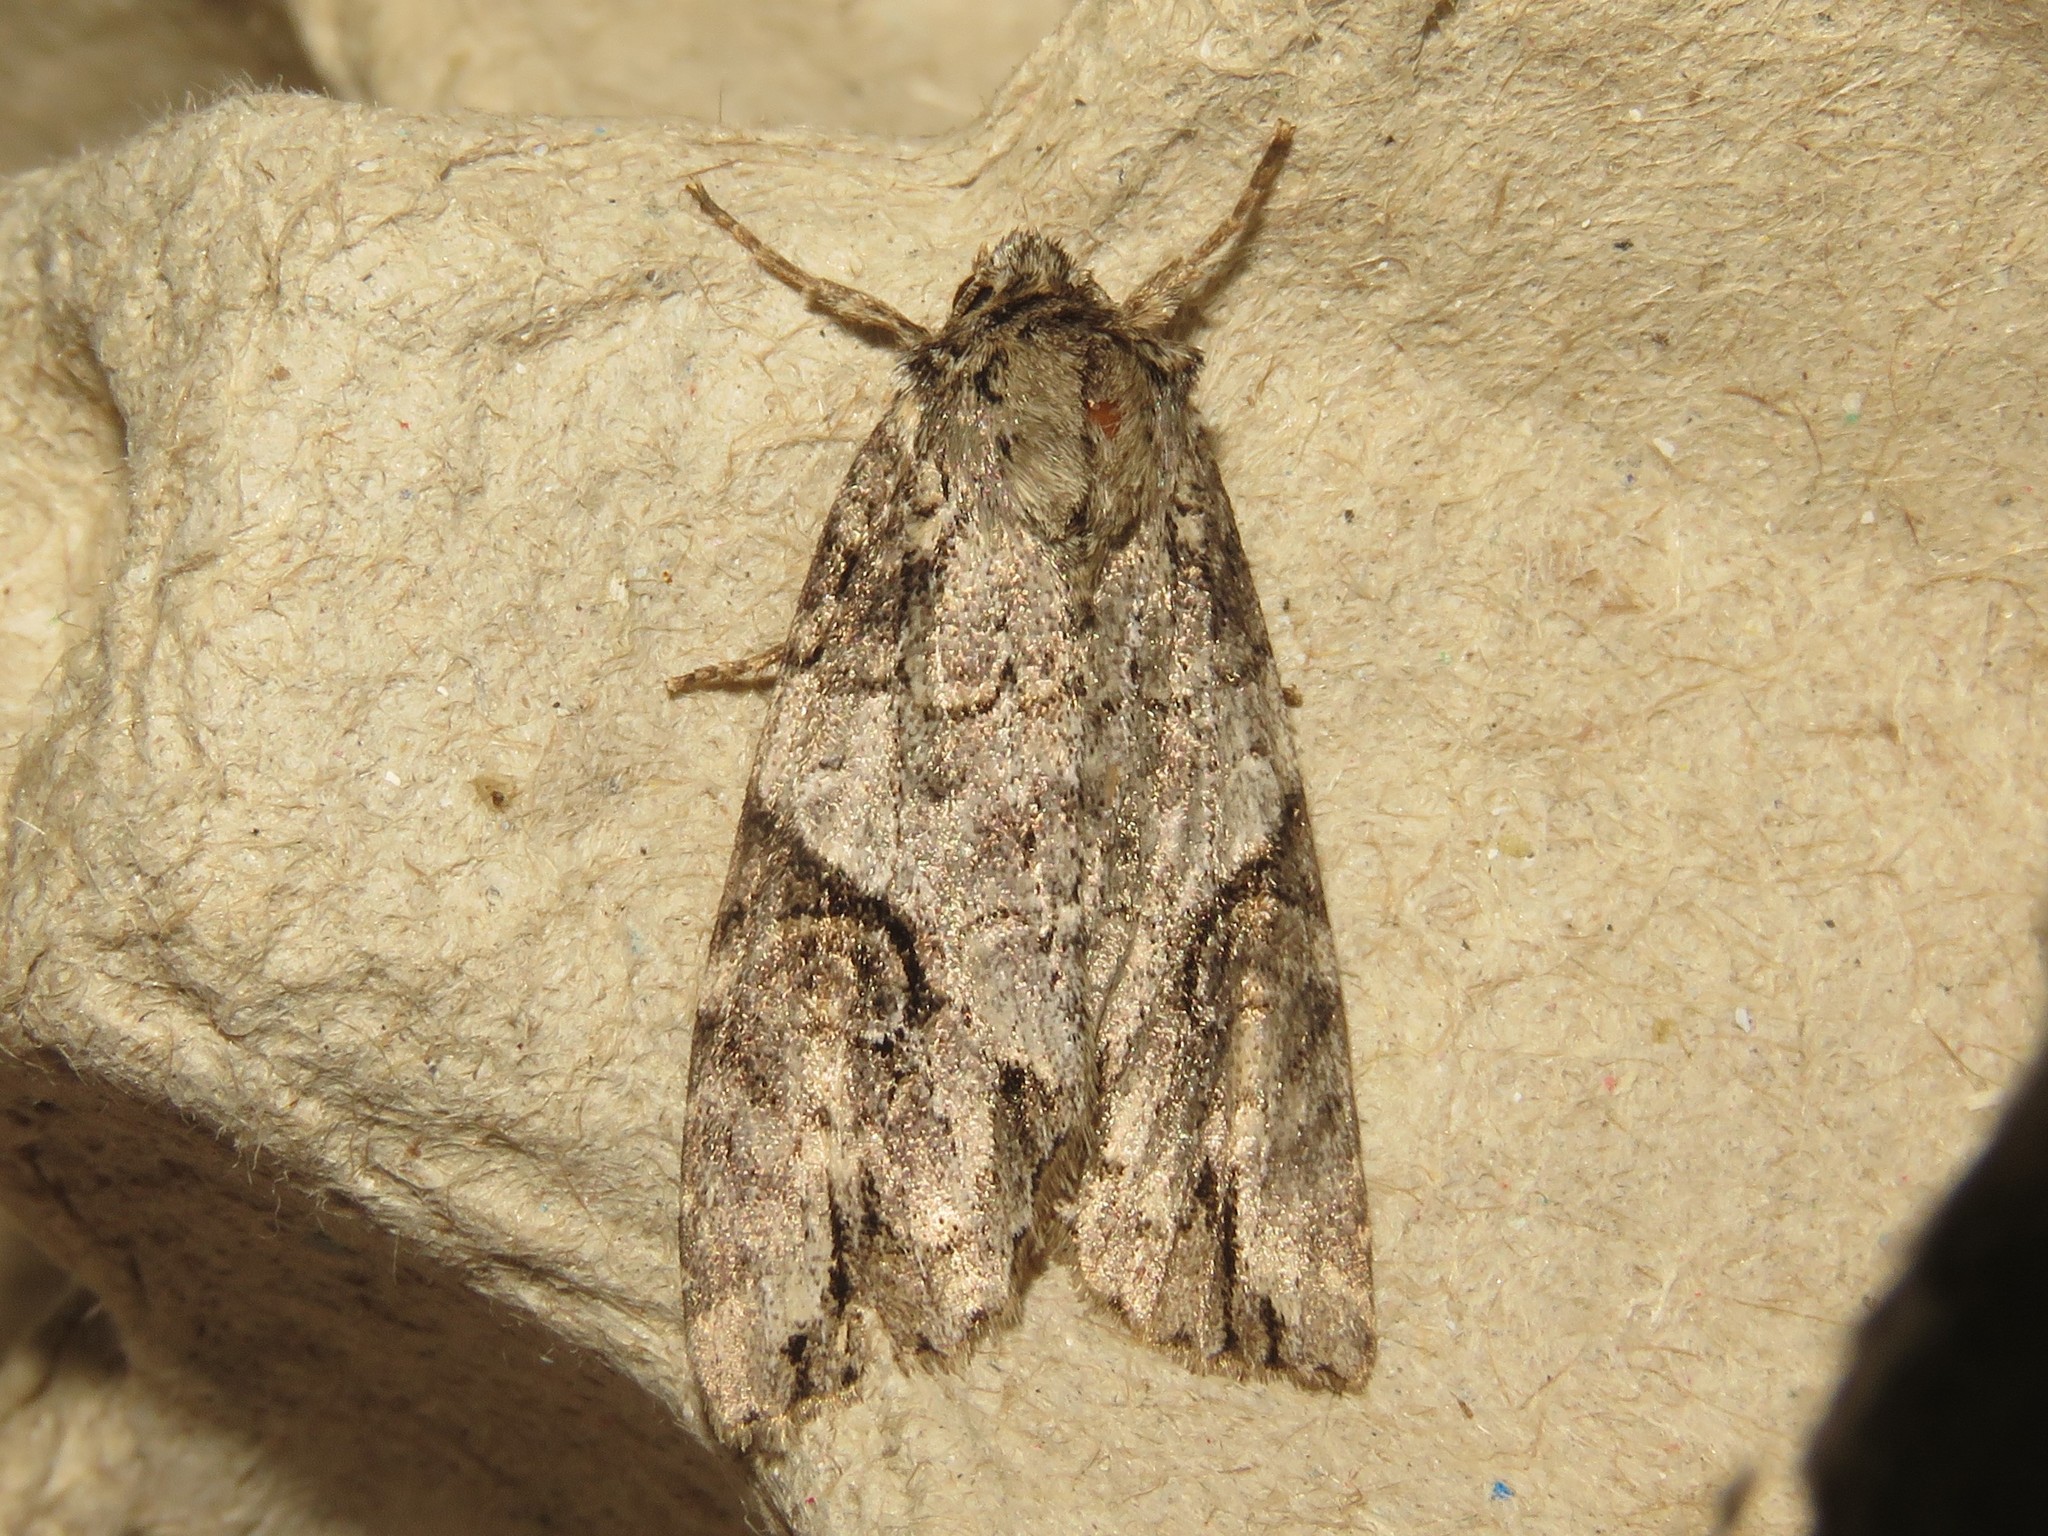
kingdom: Animalia
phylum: Arthropoda
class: Insecta
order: Lepidoptera
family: Noctuidae
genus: Achatia
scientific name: Achatia latex
